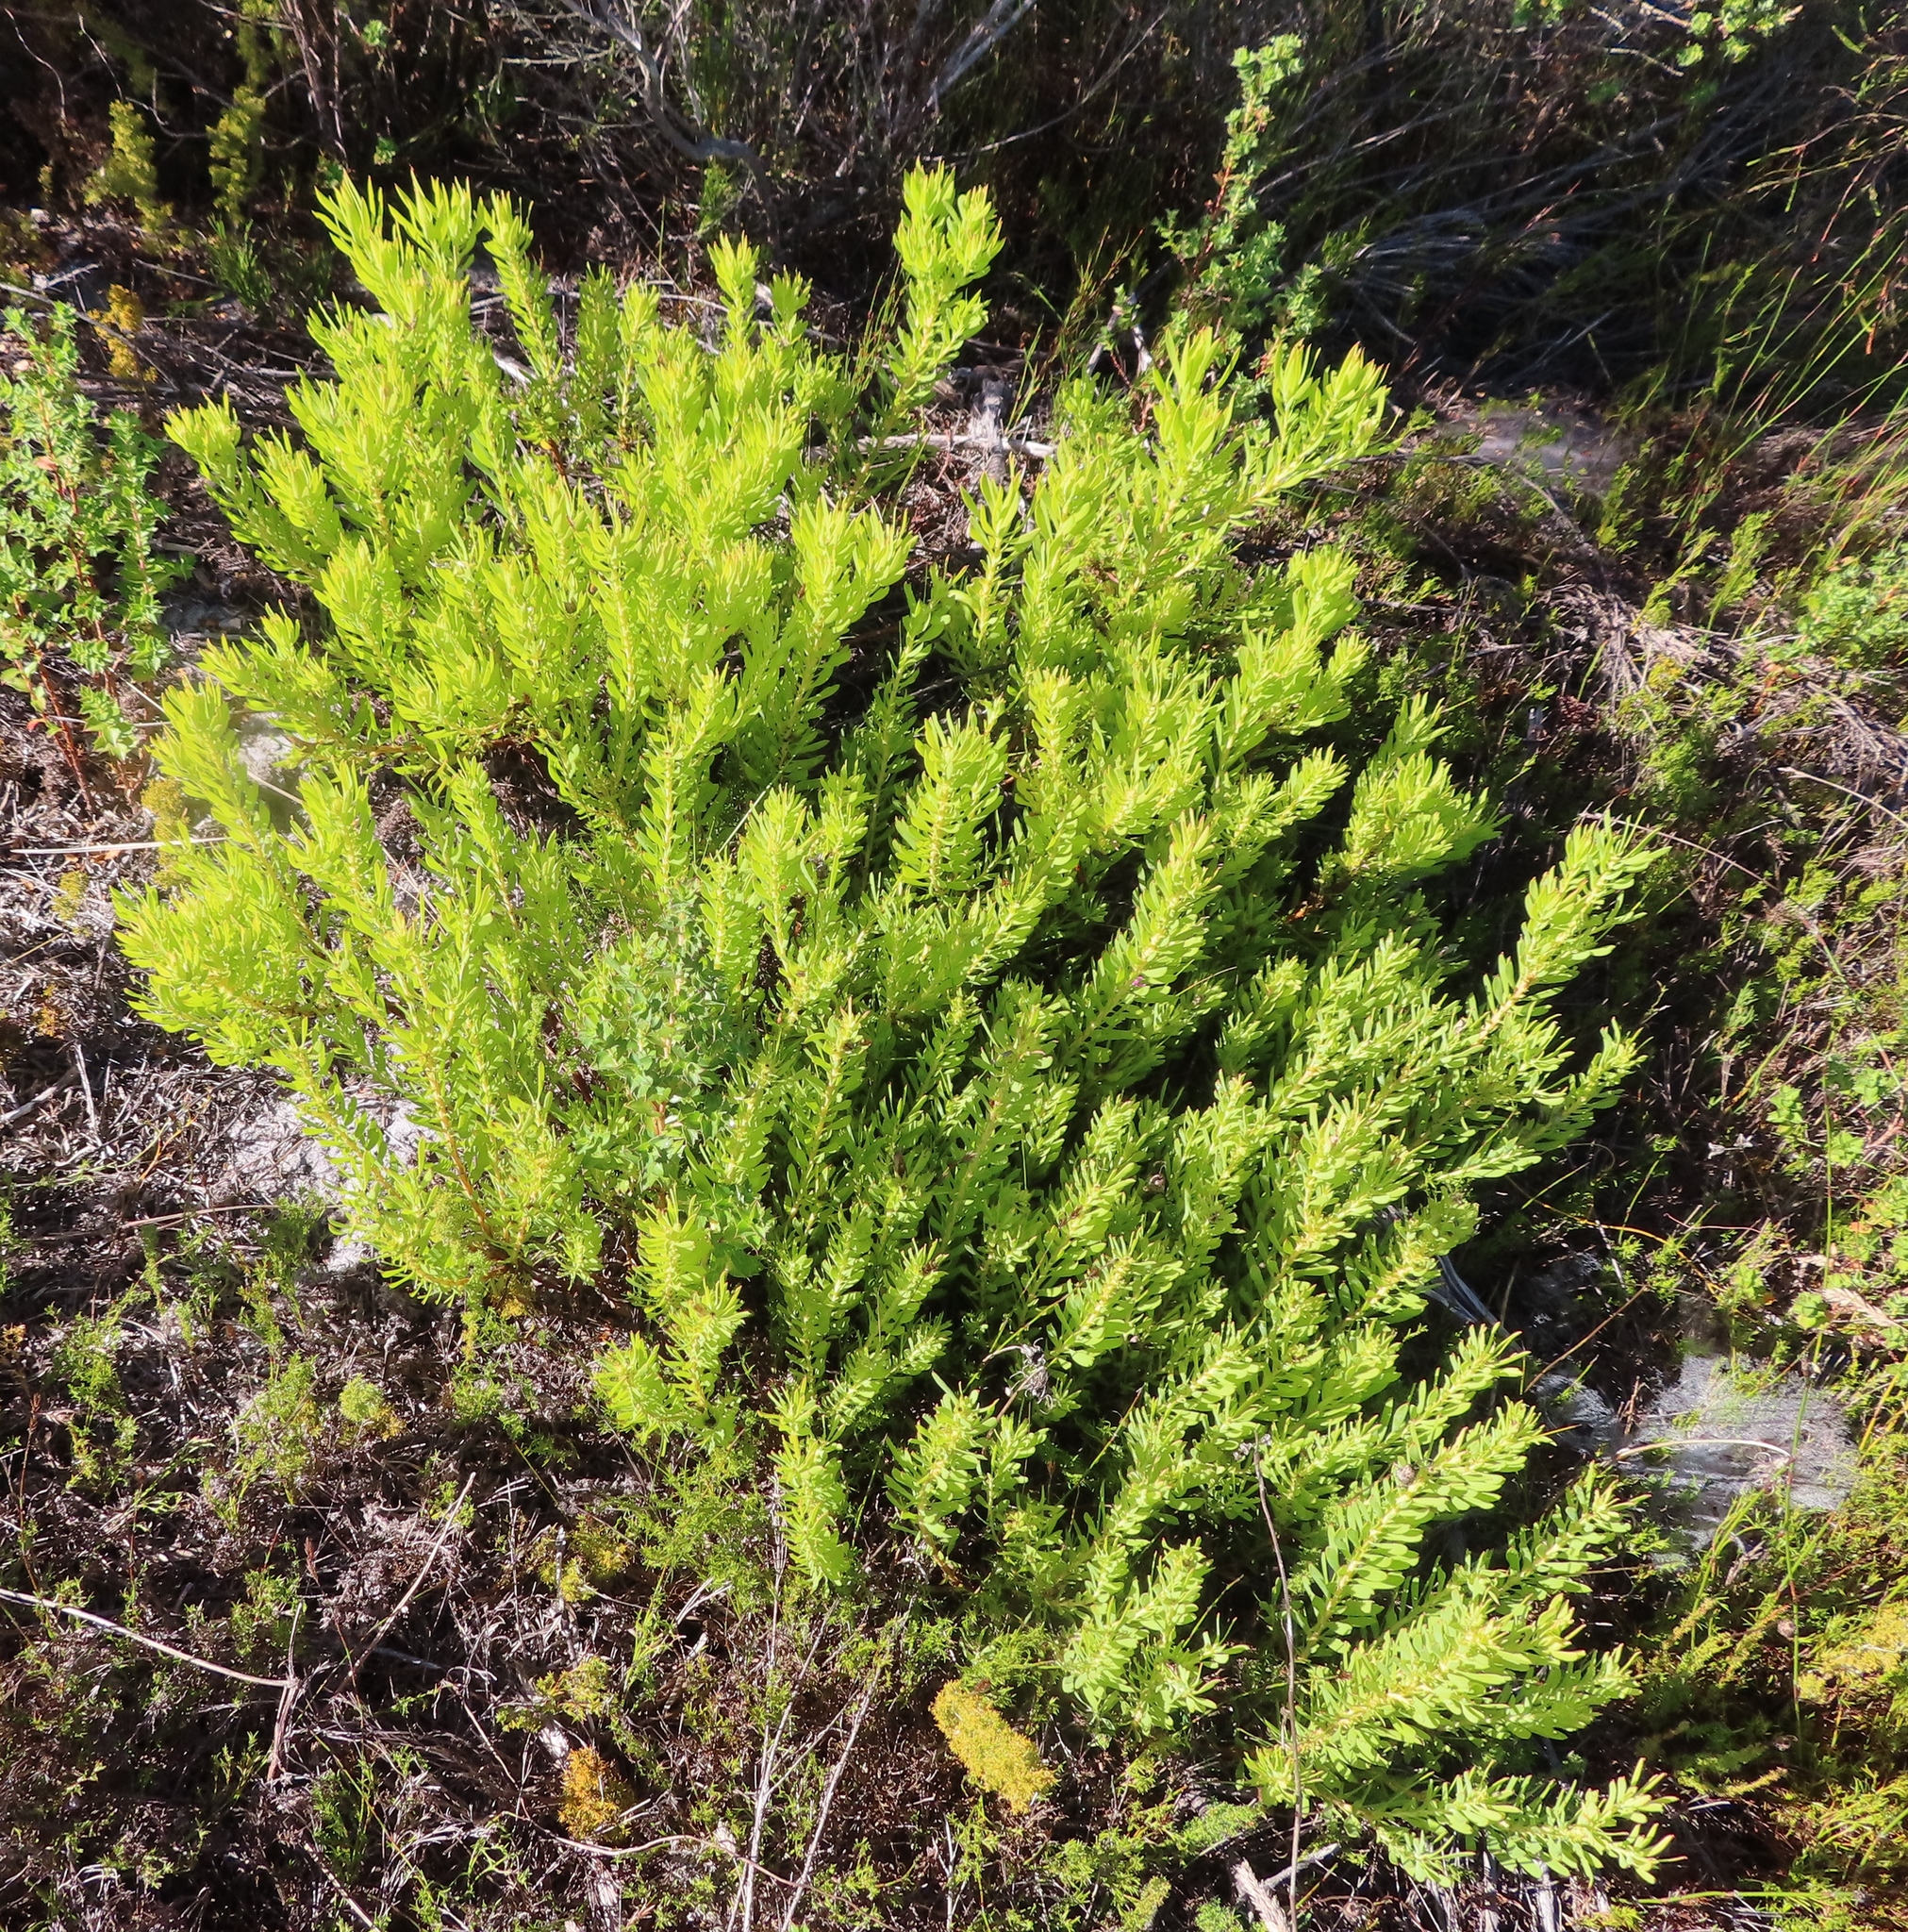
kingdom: Plantae
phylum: Tracheophyta
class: Magnoliopsida
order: Proteales
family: Proteaceae
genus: Leucadendron
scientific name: Leucadendron salignum
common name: Common sunshine conebush
